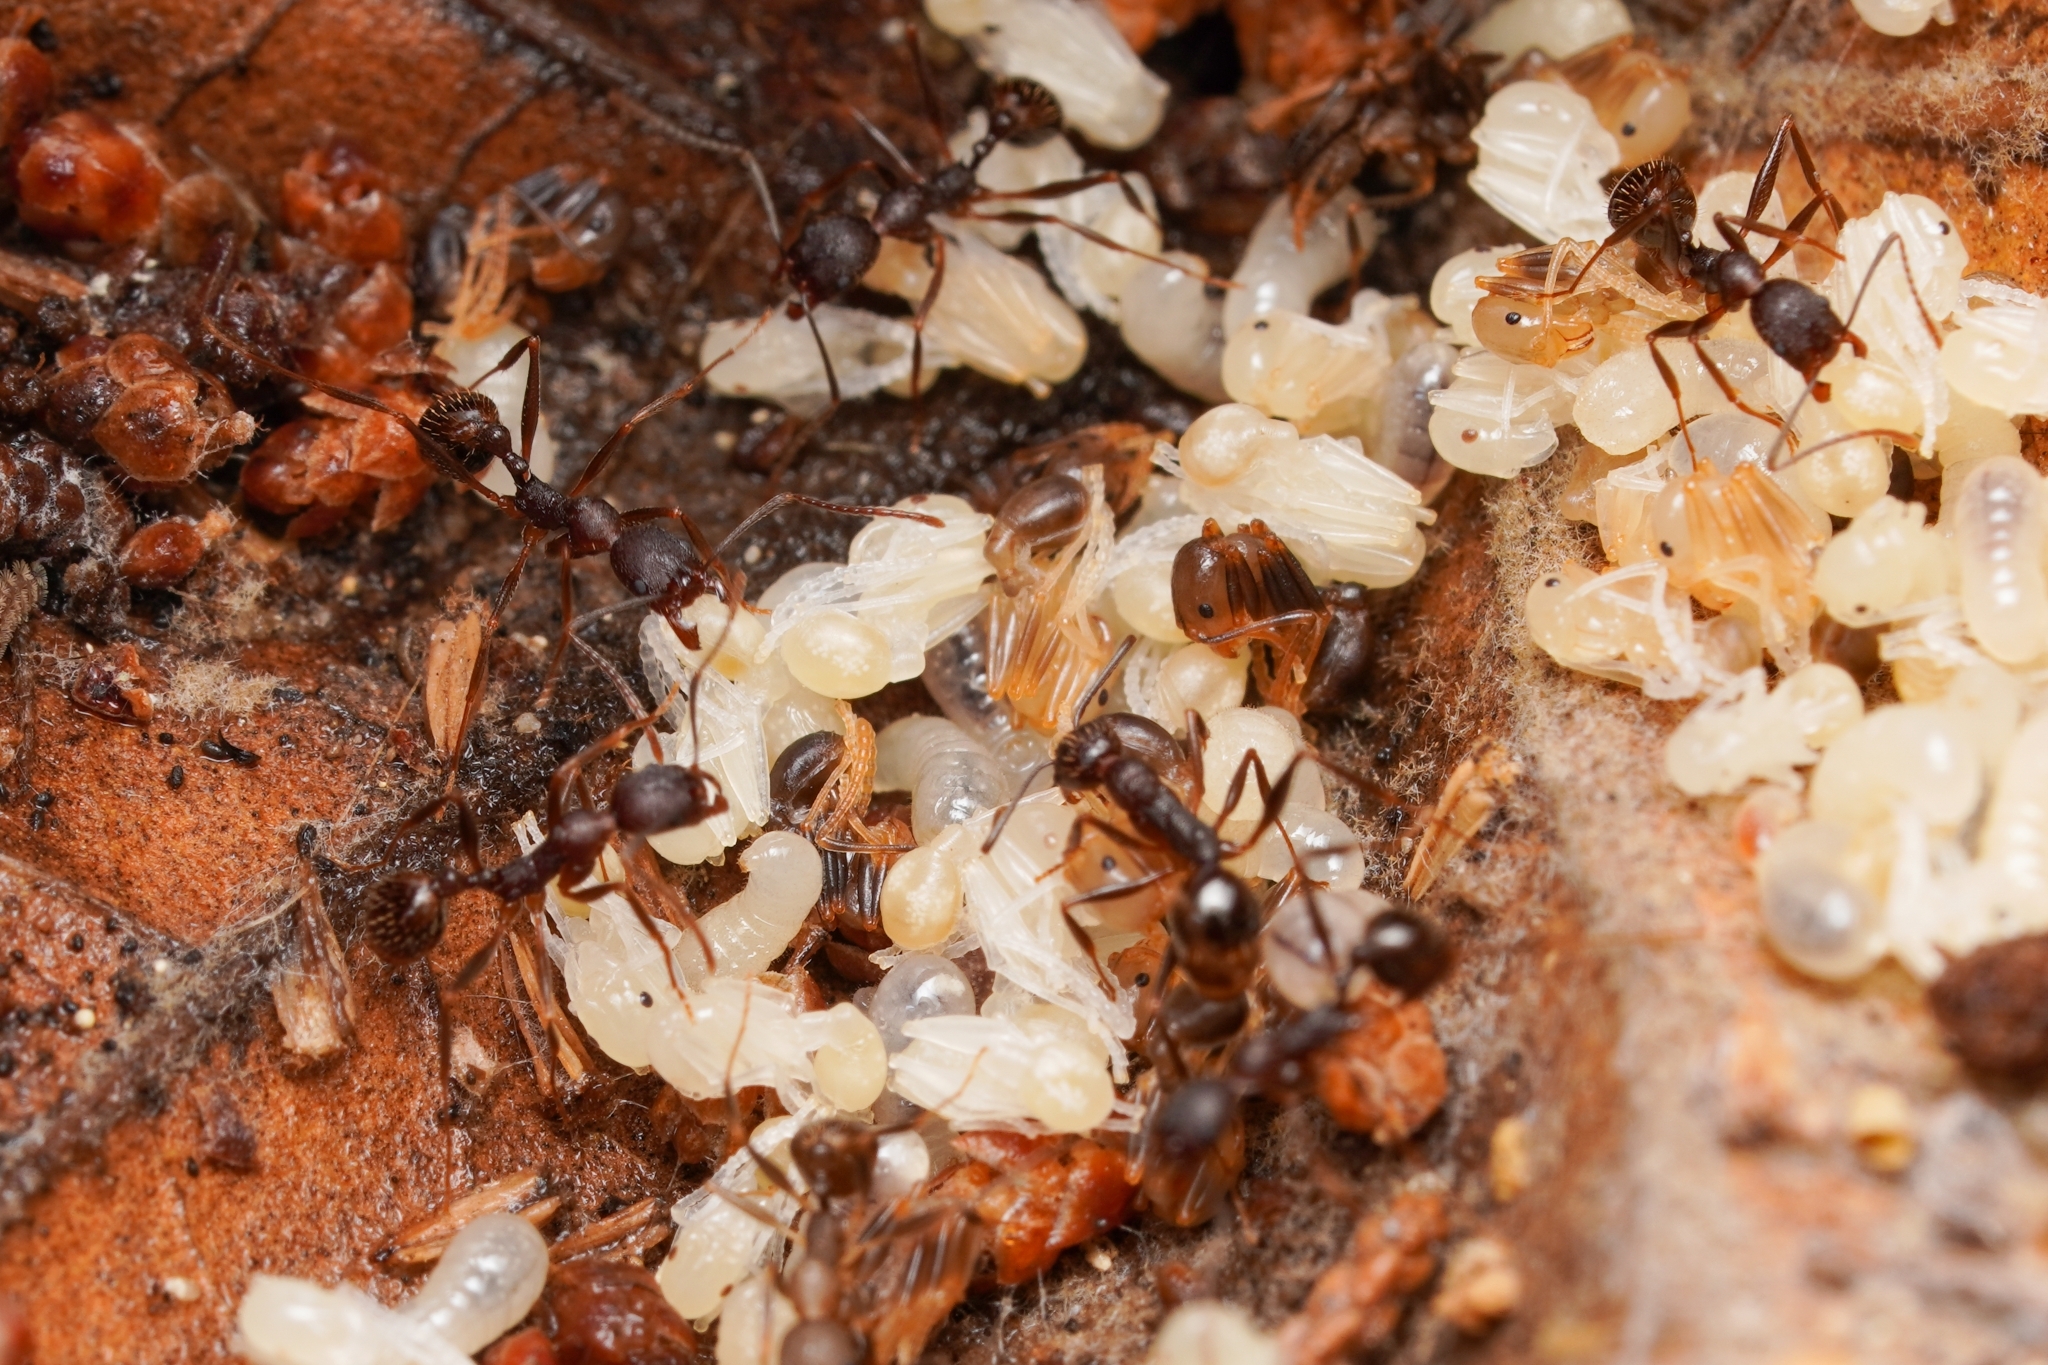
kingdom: Animalia
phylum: Arthropoda
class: Insecta
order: Hymenoptera
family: Formicidae
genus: Aphaenogaster
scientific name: Aphaenogaster texana
